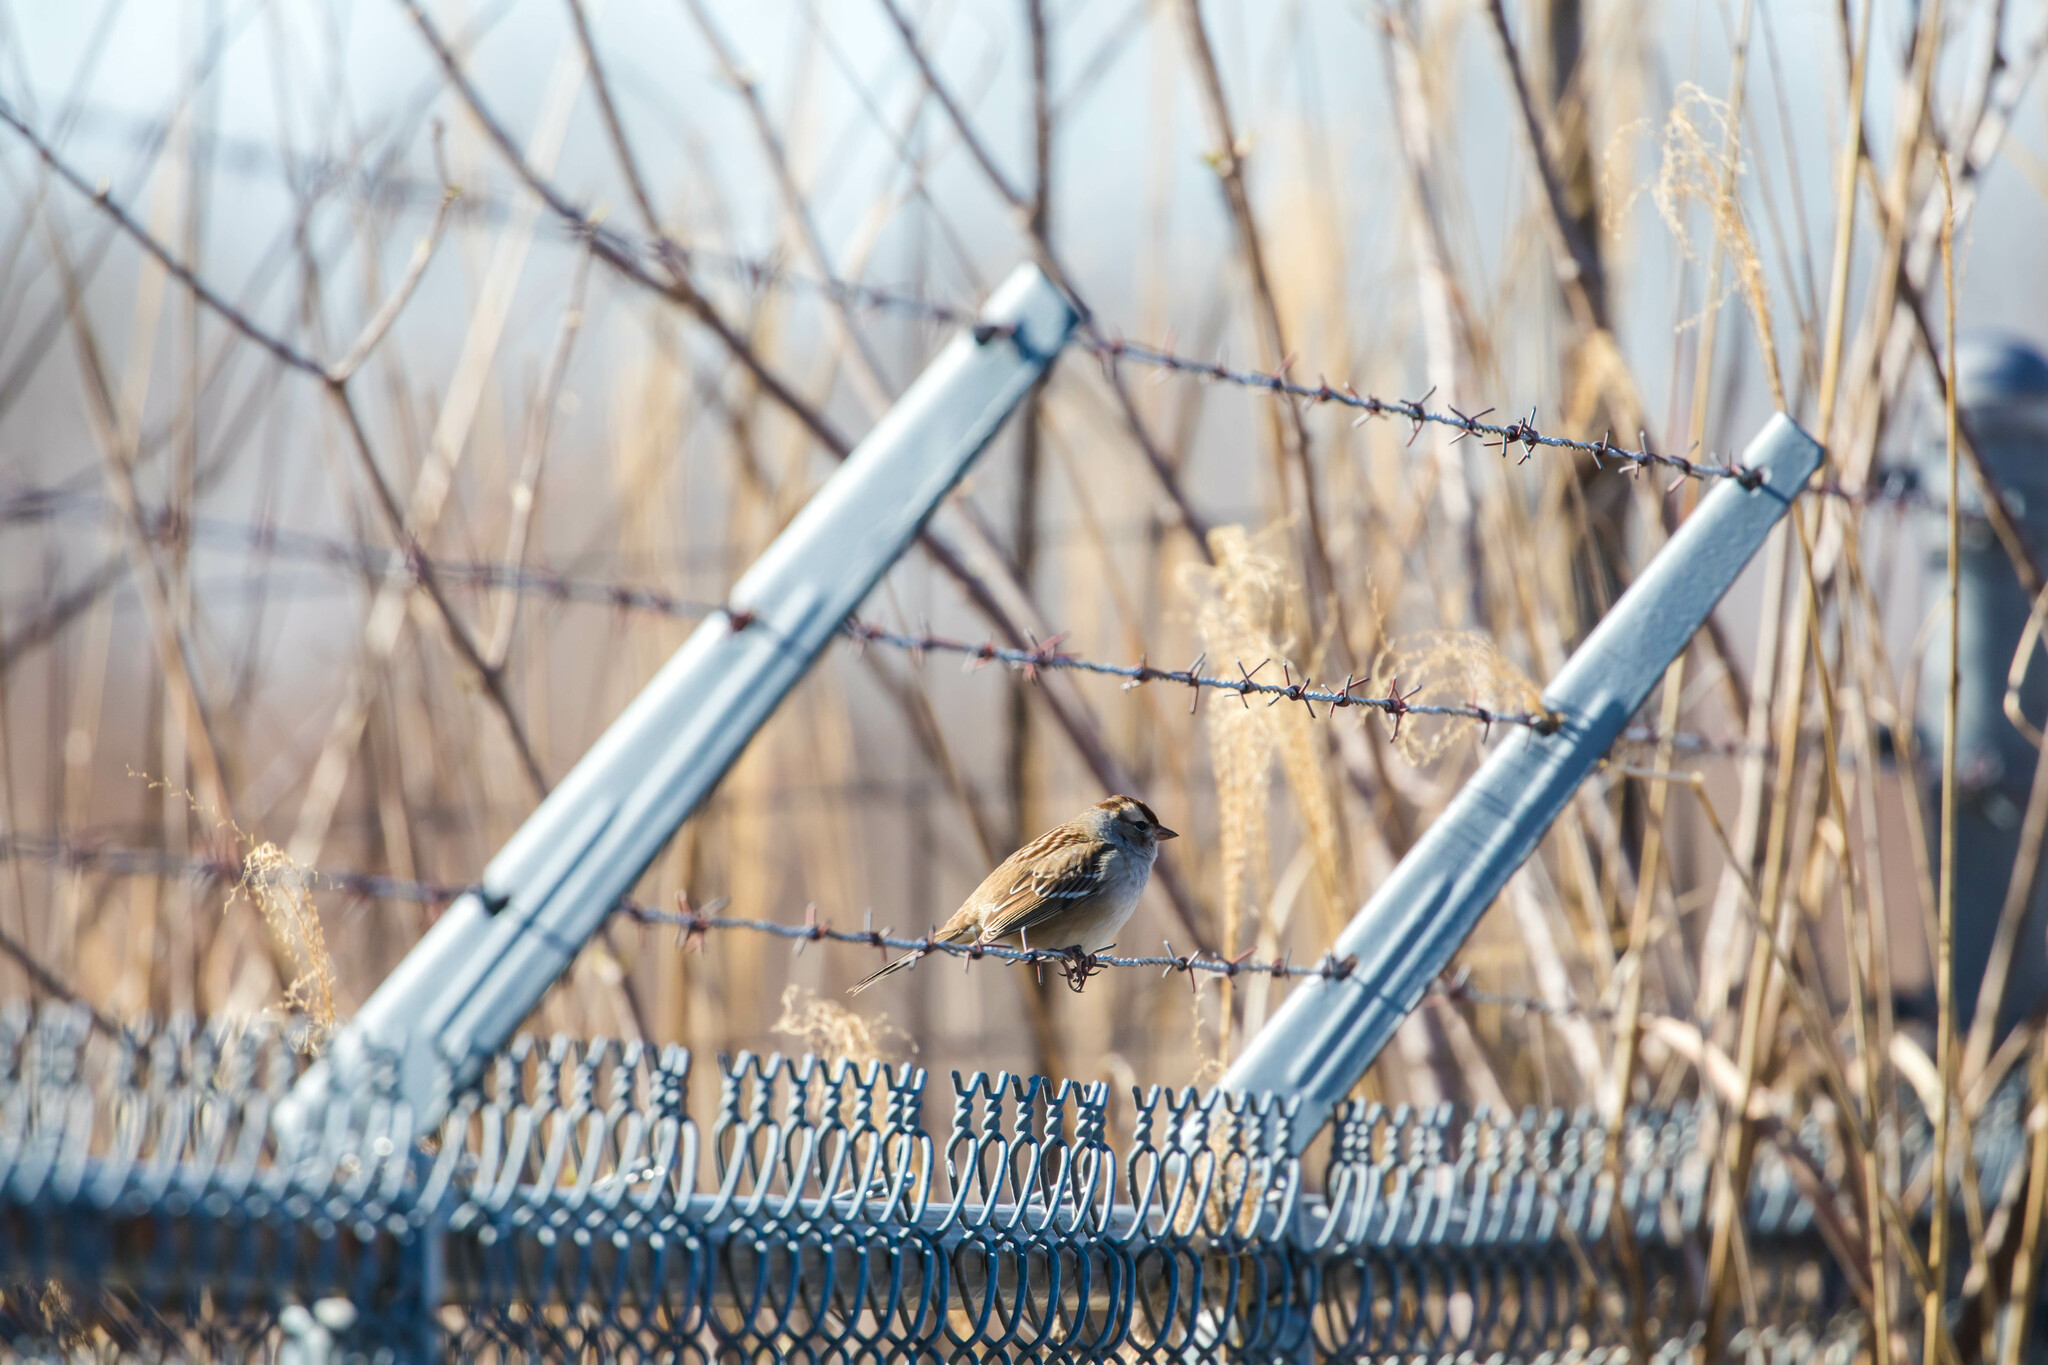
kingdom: Animalia
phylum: Chordata
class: Aves
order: Passeriformes
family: Passerellidae
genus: Zonotrichia
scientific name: Zonotrichia leucophrys
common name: White-crowned sparrow
